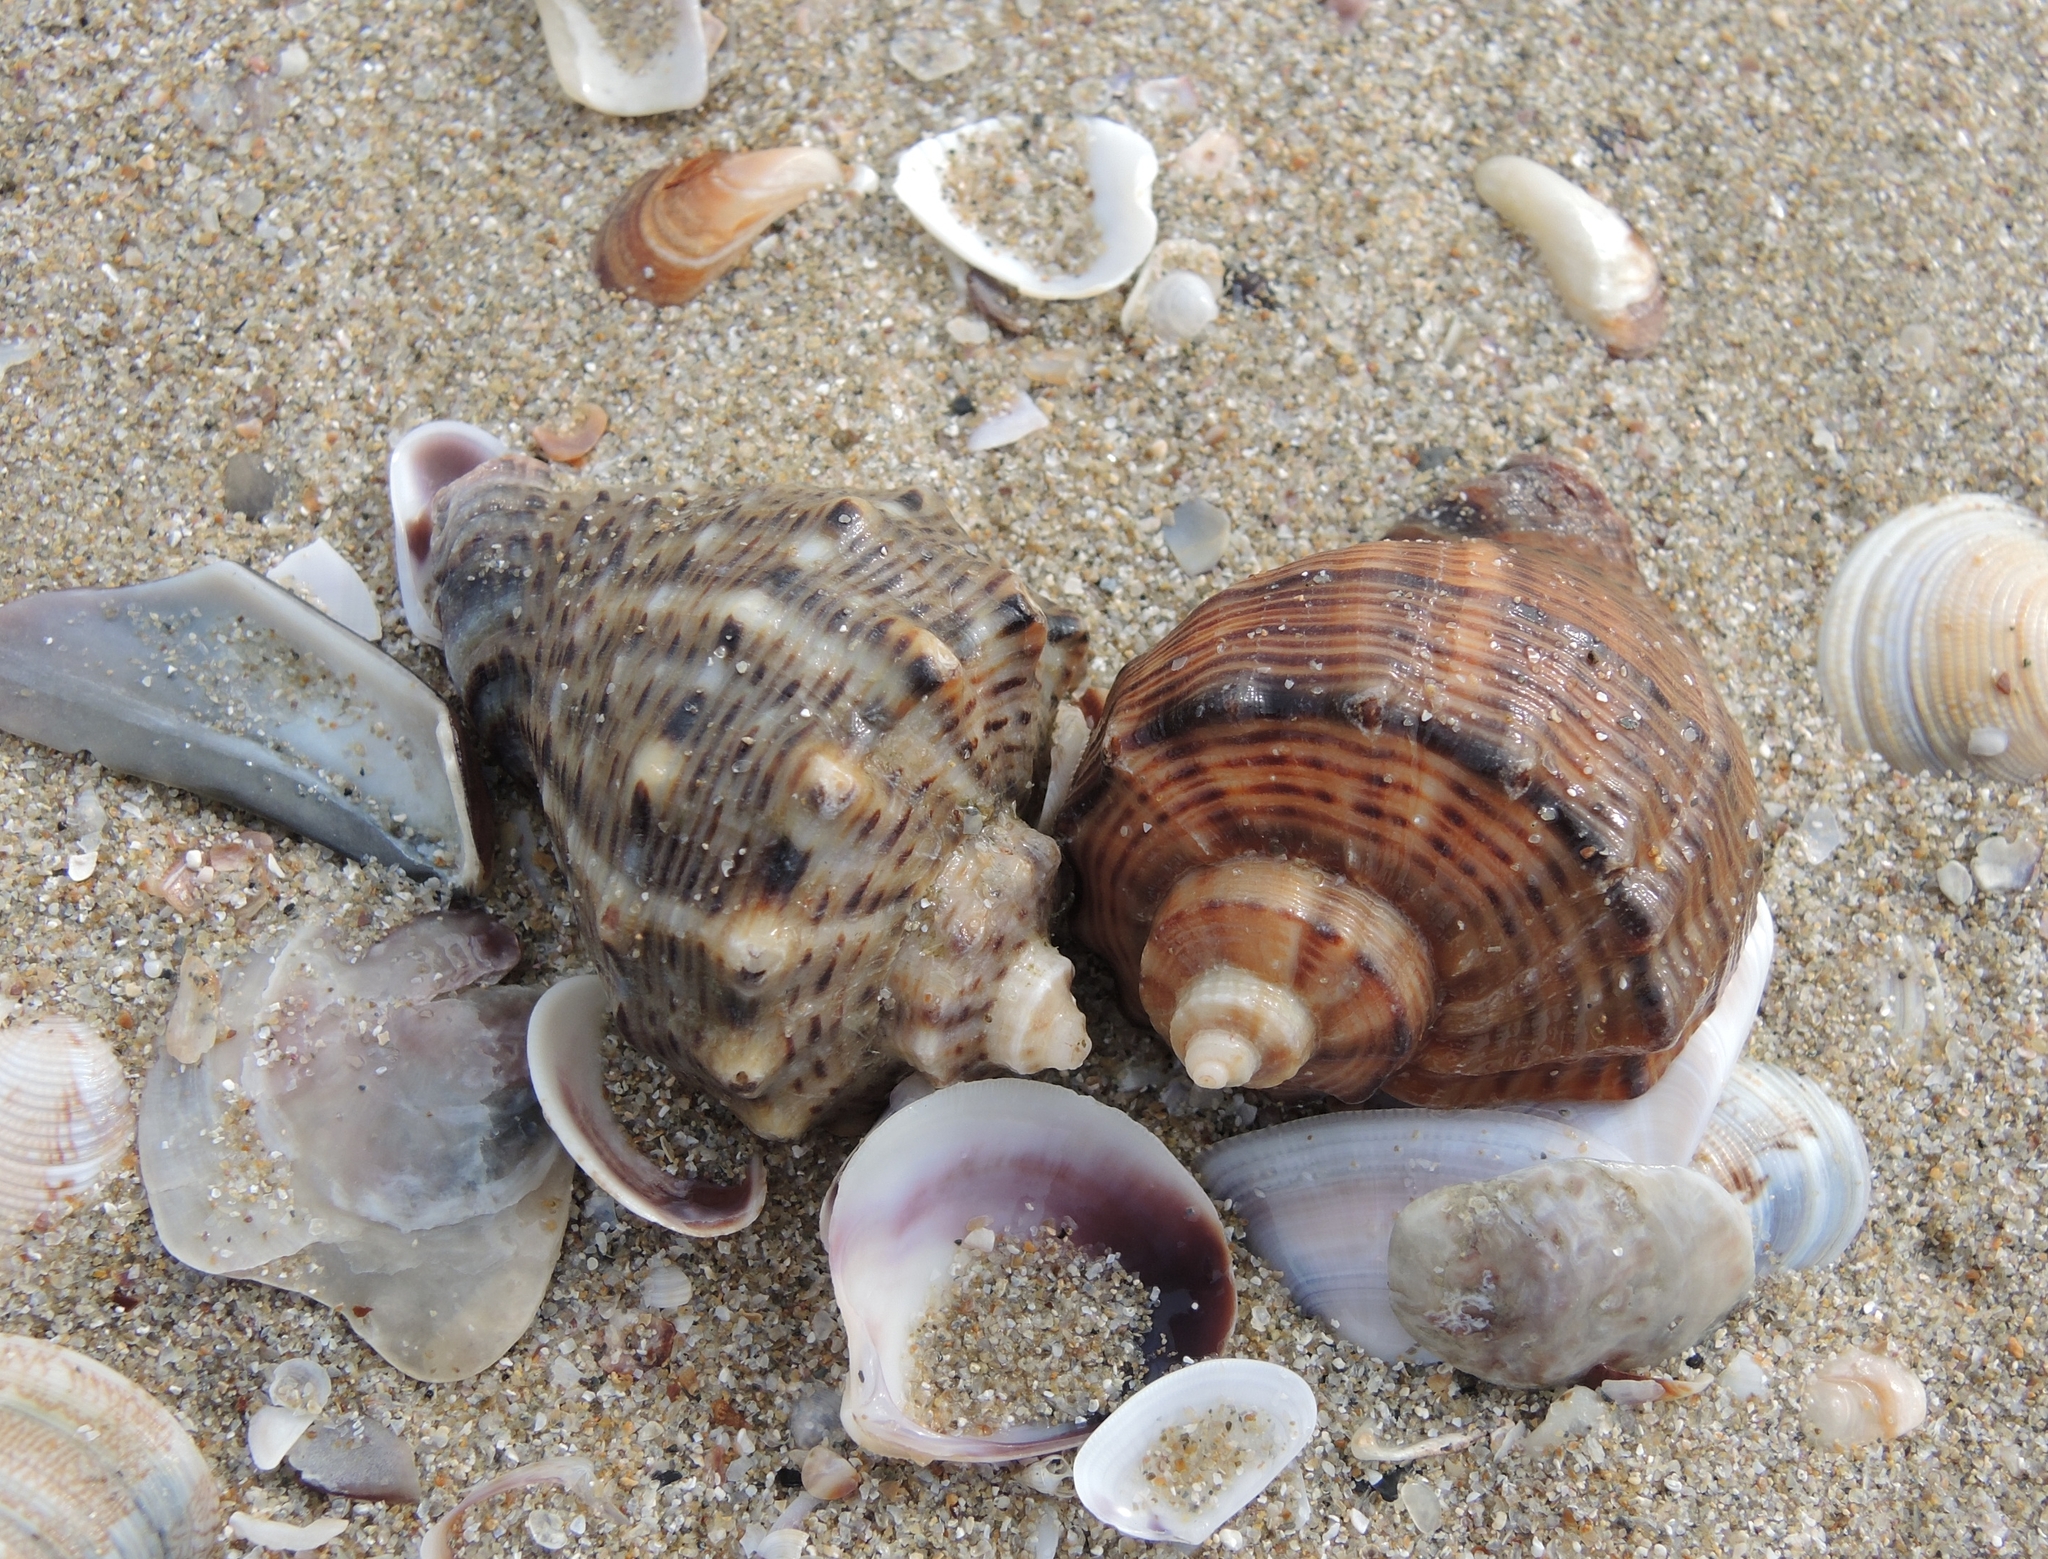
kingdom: Animalia
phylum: Mollusca
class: Gastropoda
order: Neogastropoda
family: Muricidae
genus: Rapana
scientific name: Rapana venosa
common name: Veined rapa whelk
